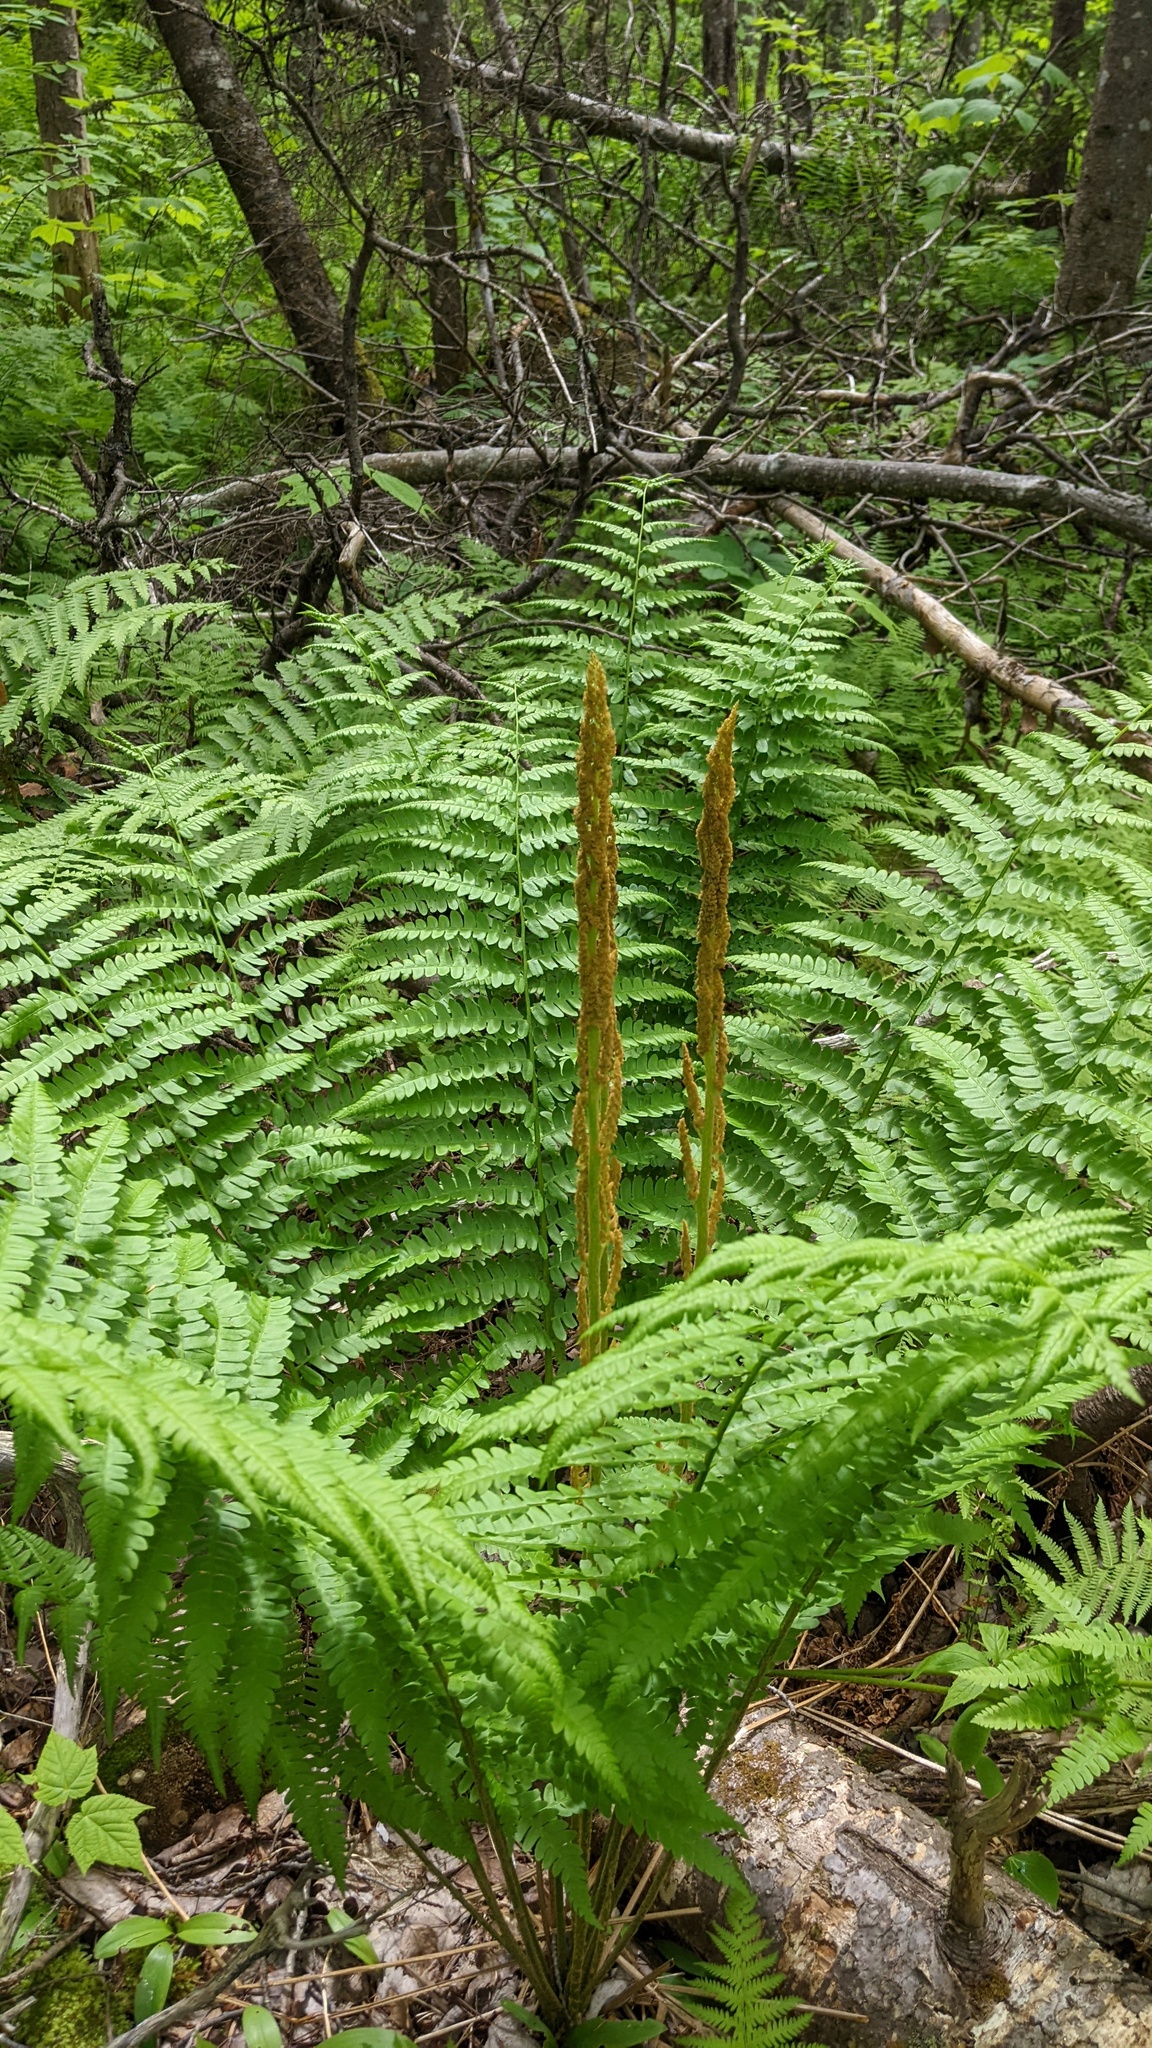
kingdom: Plantae
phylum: Tracheophyta
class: Polypodiopsida
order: Osmundales
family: Osmundaceae
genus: Osmundastrum
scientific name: Osmundastrum cinnamomeum
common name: Cinnamon fern
